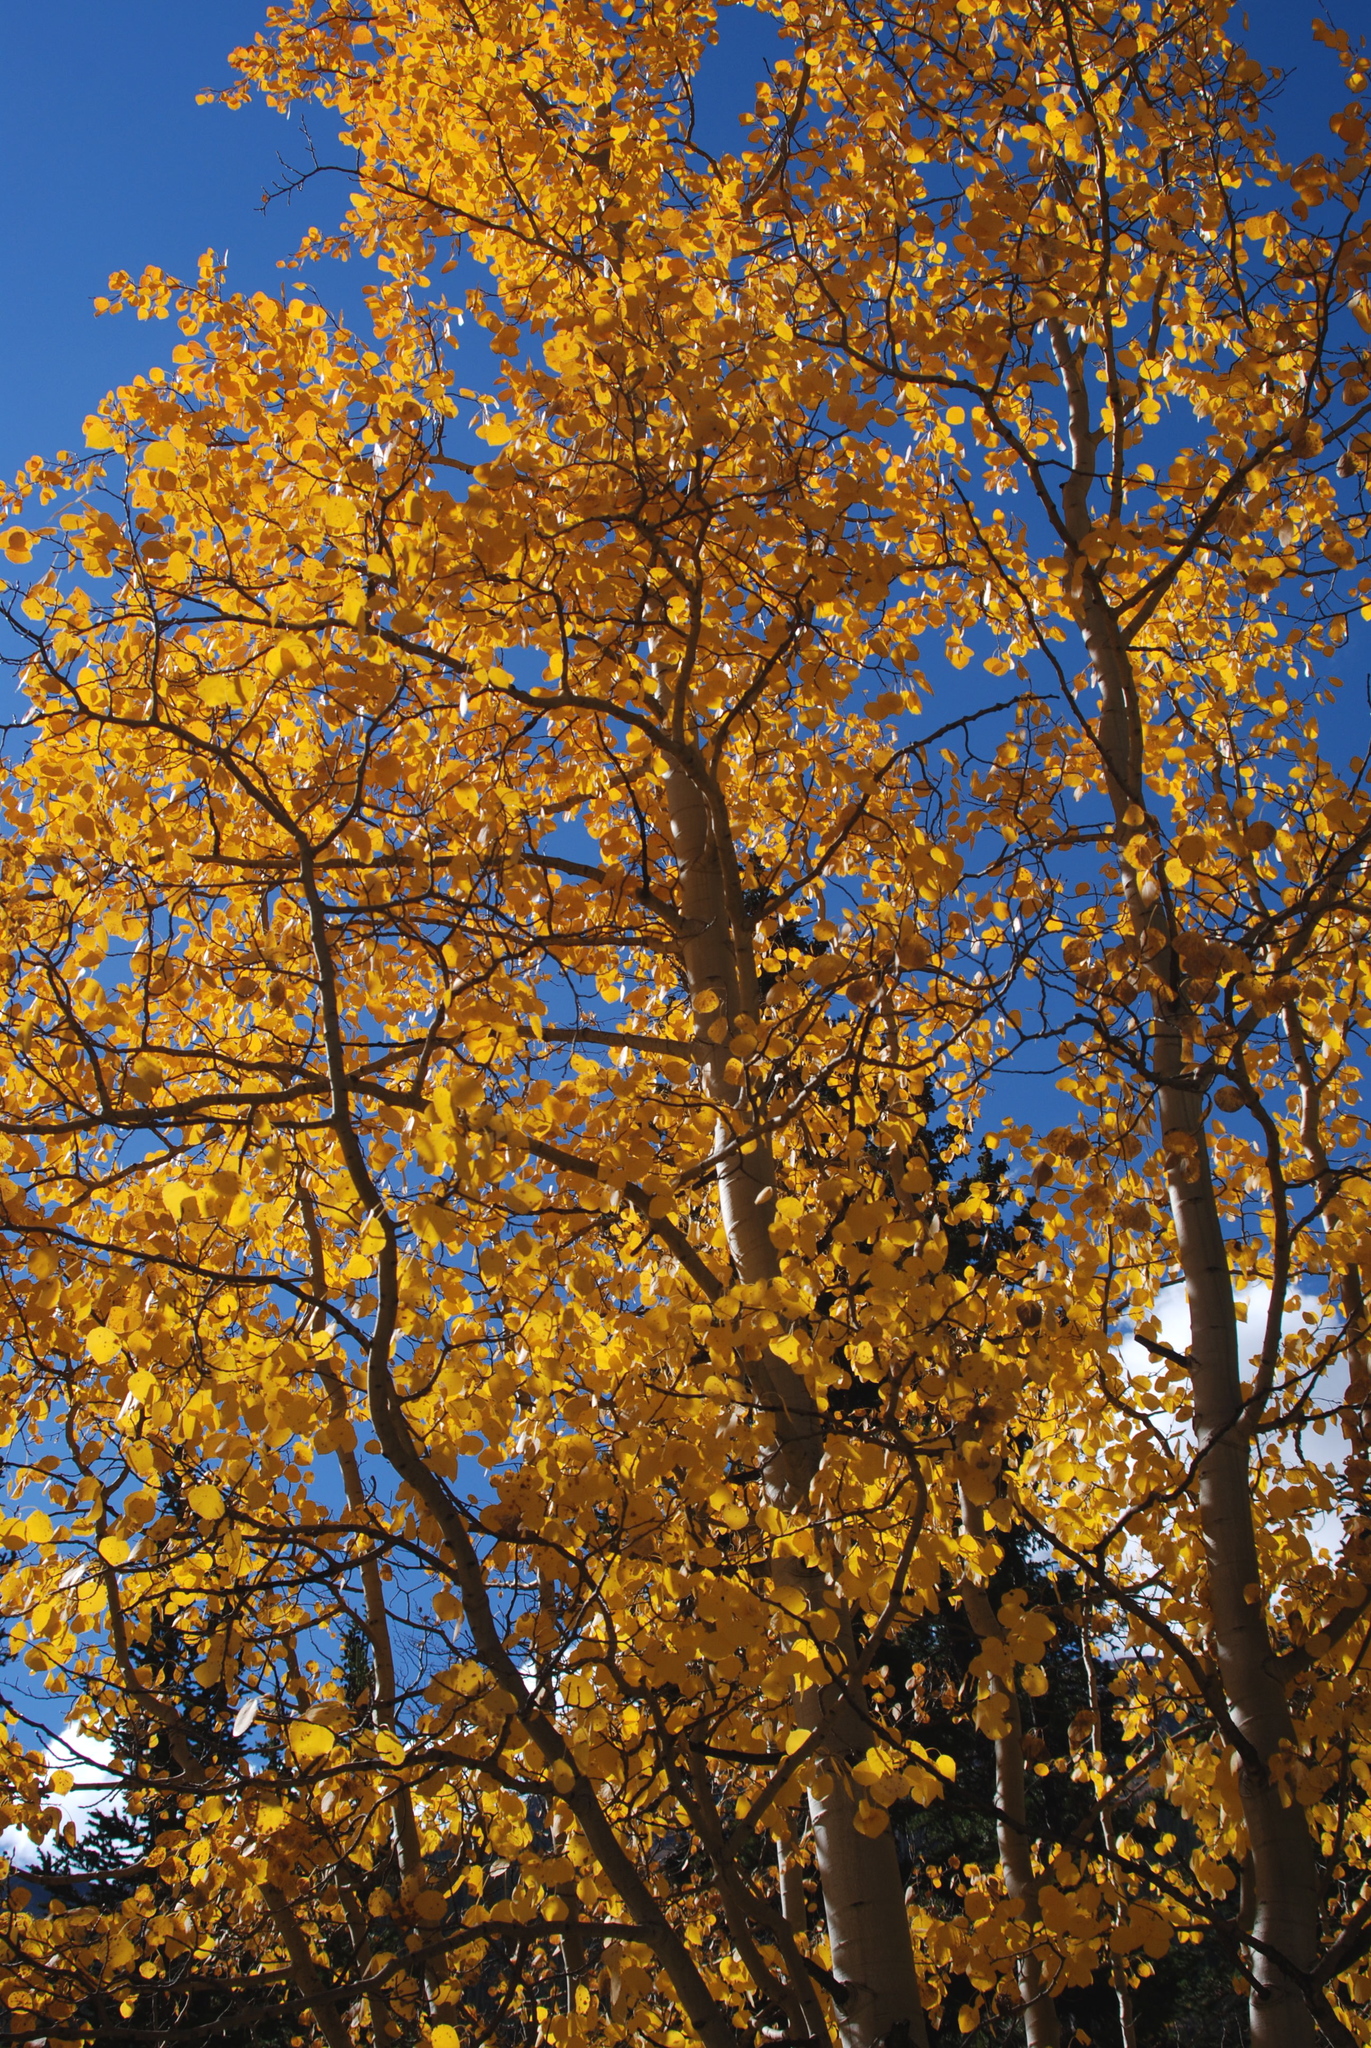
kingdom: Plantae
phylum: Tracheophyta
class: Magnoliopsida
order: Malpighiales
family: Salicaceae
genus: Populus
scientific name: Populus tremuloides
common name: Quaking aspen
